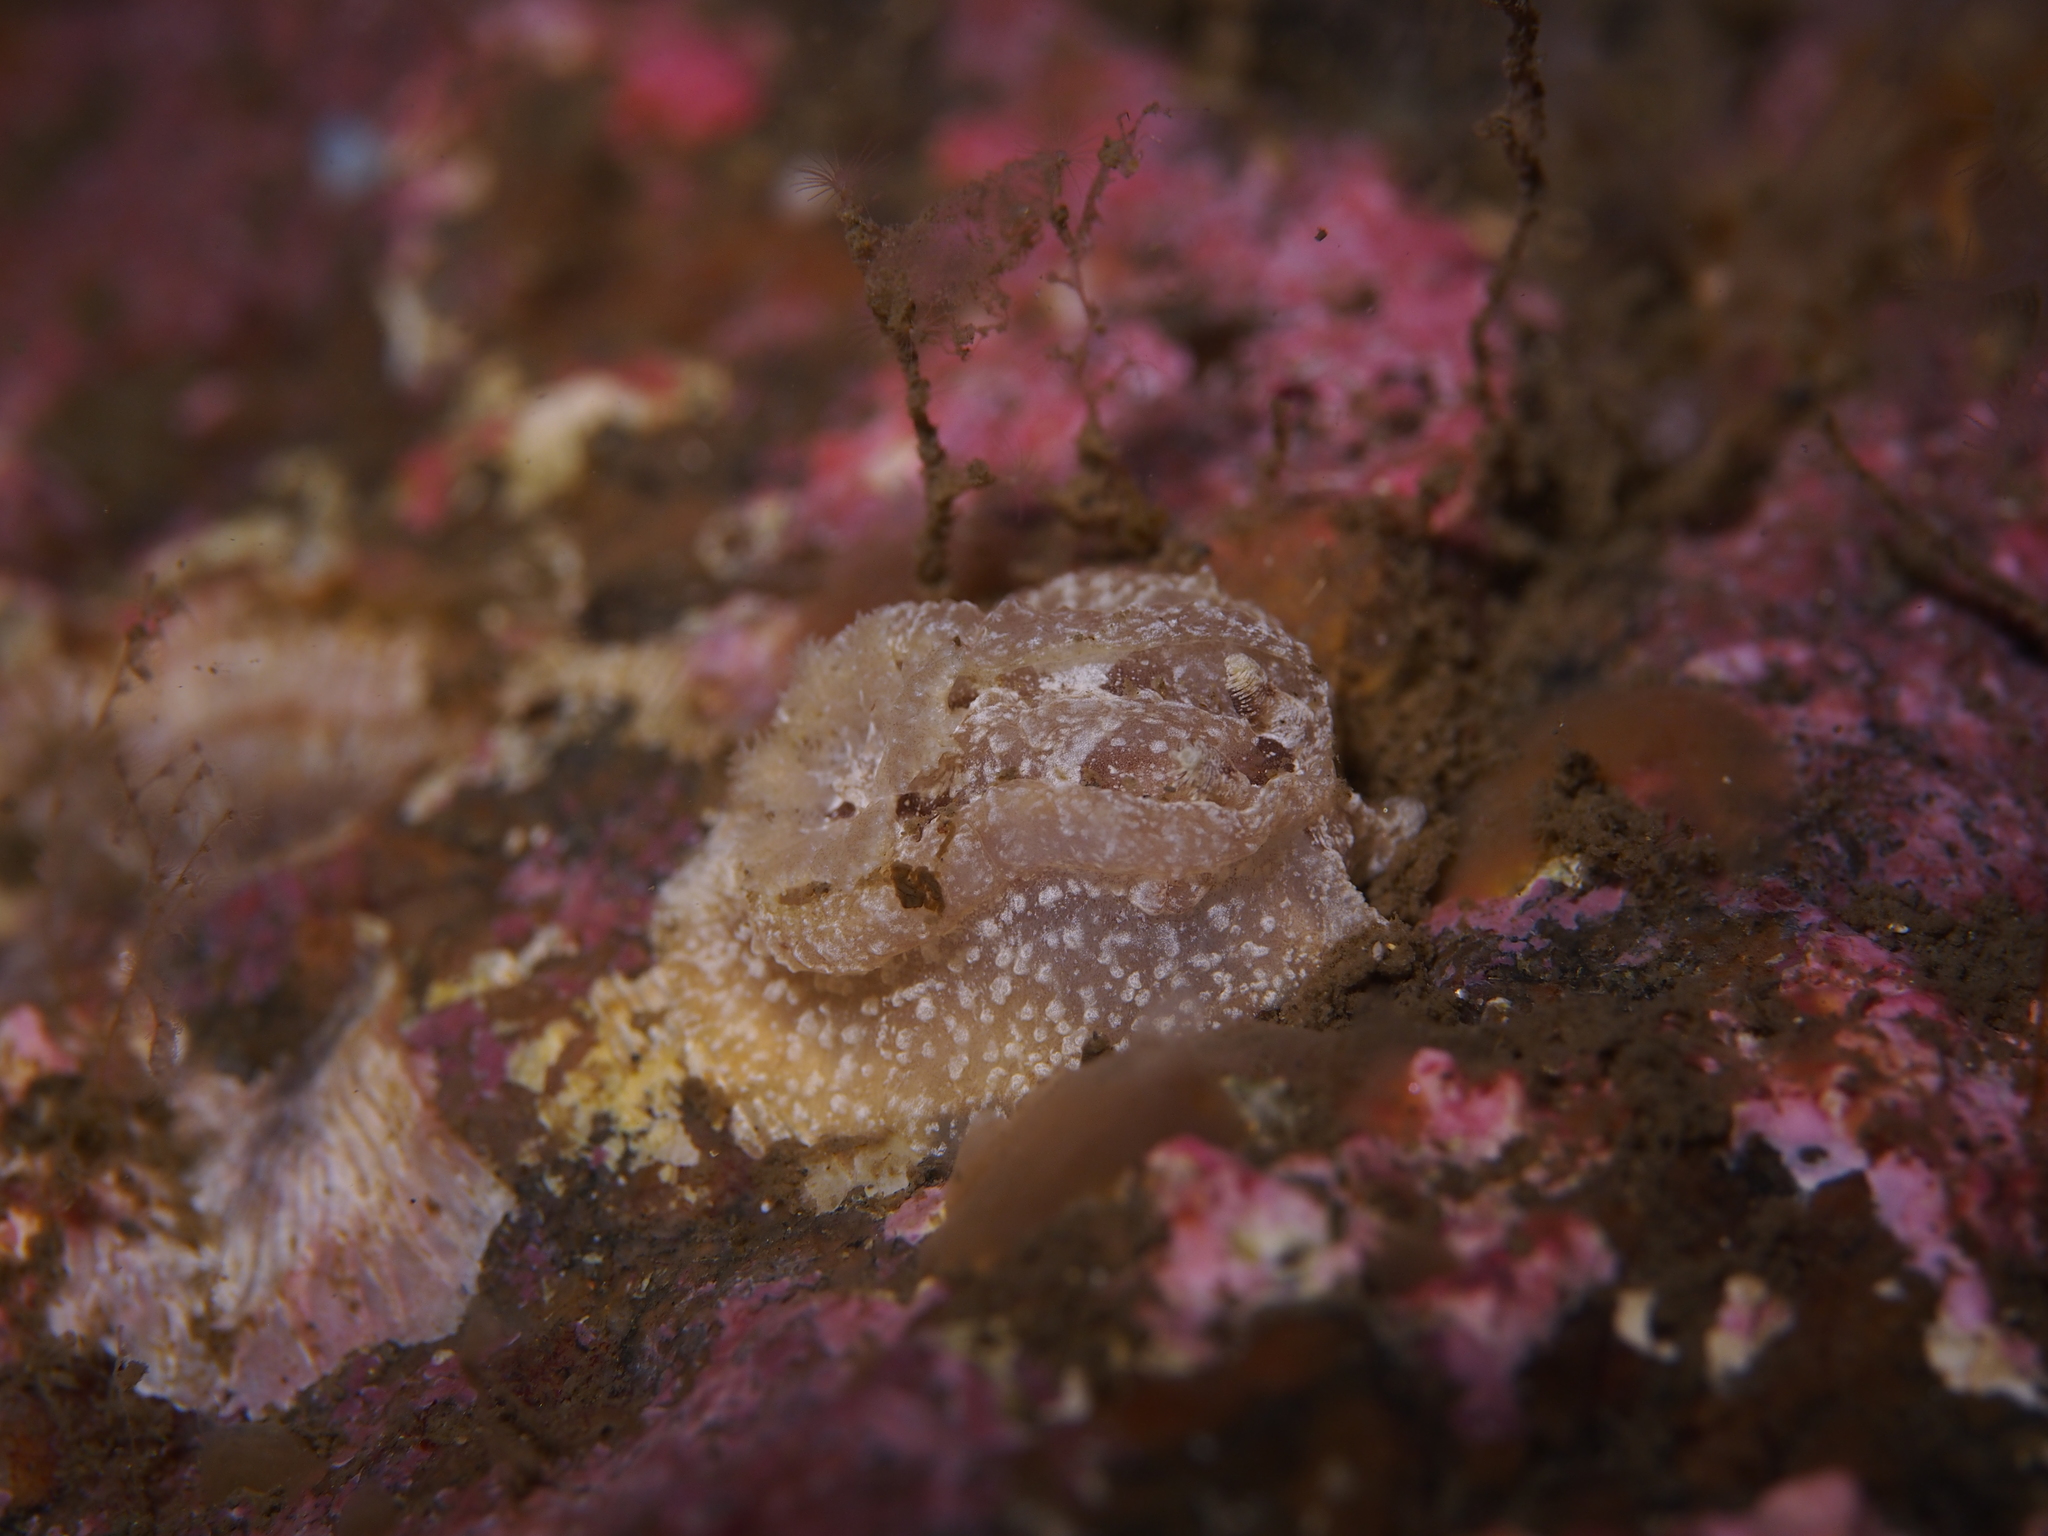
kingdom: Animalia
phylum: Mollusca
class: Gastropoda
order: Nudibranchia
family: Goniodorididae
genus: Pelagella
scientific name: Pelagella castanea
